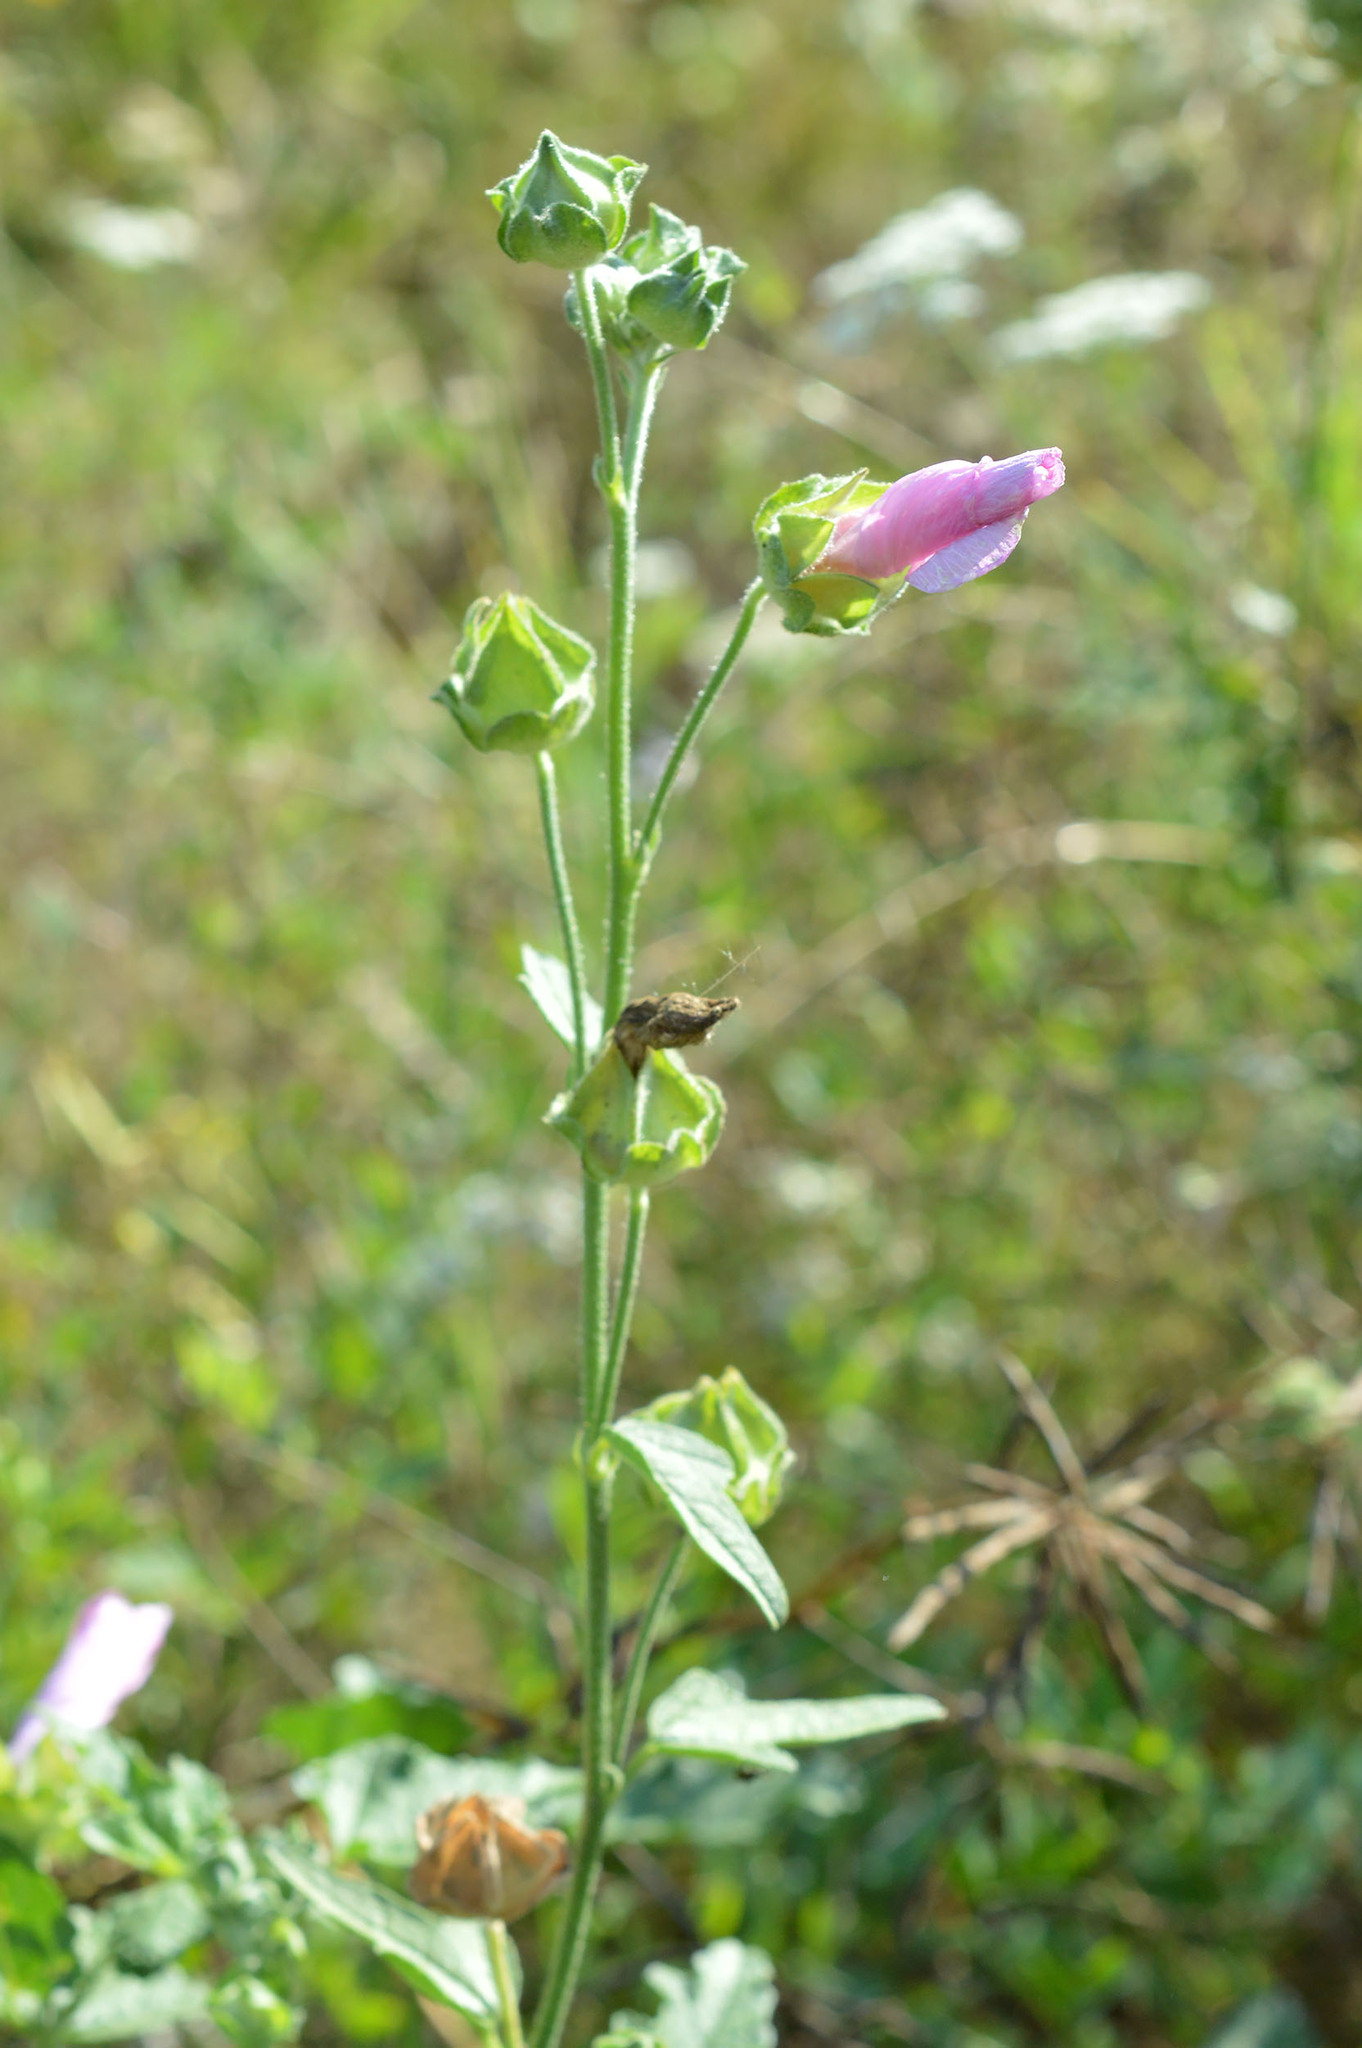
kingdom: Plantae
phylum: Tracheophyta
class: Magnoliopsida
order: Malvales
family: Malvaceae
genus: Malva
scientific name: Malva thuringiaca
